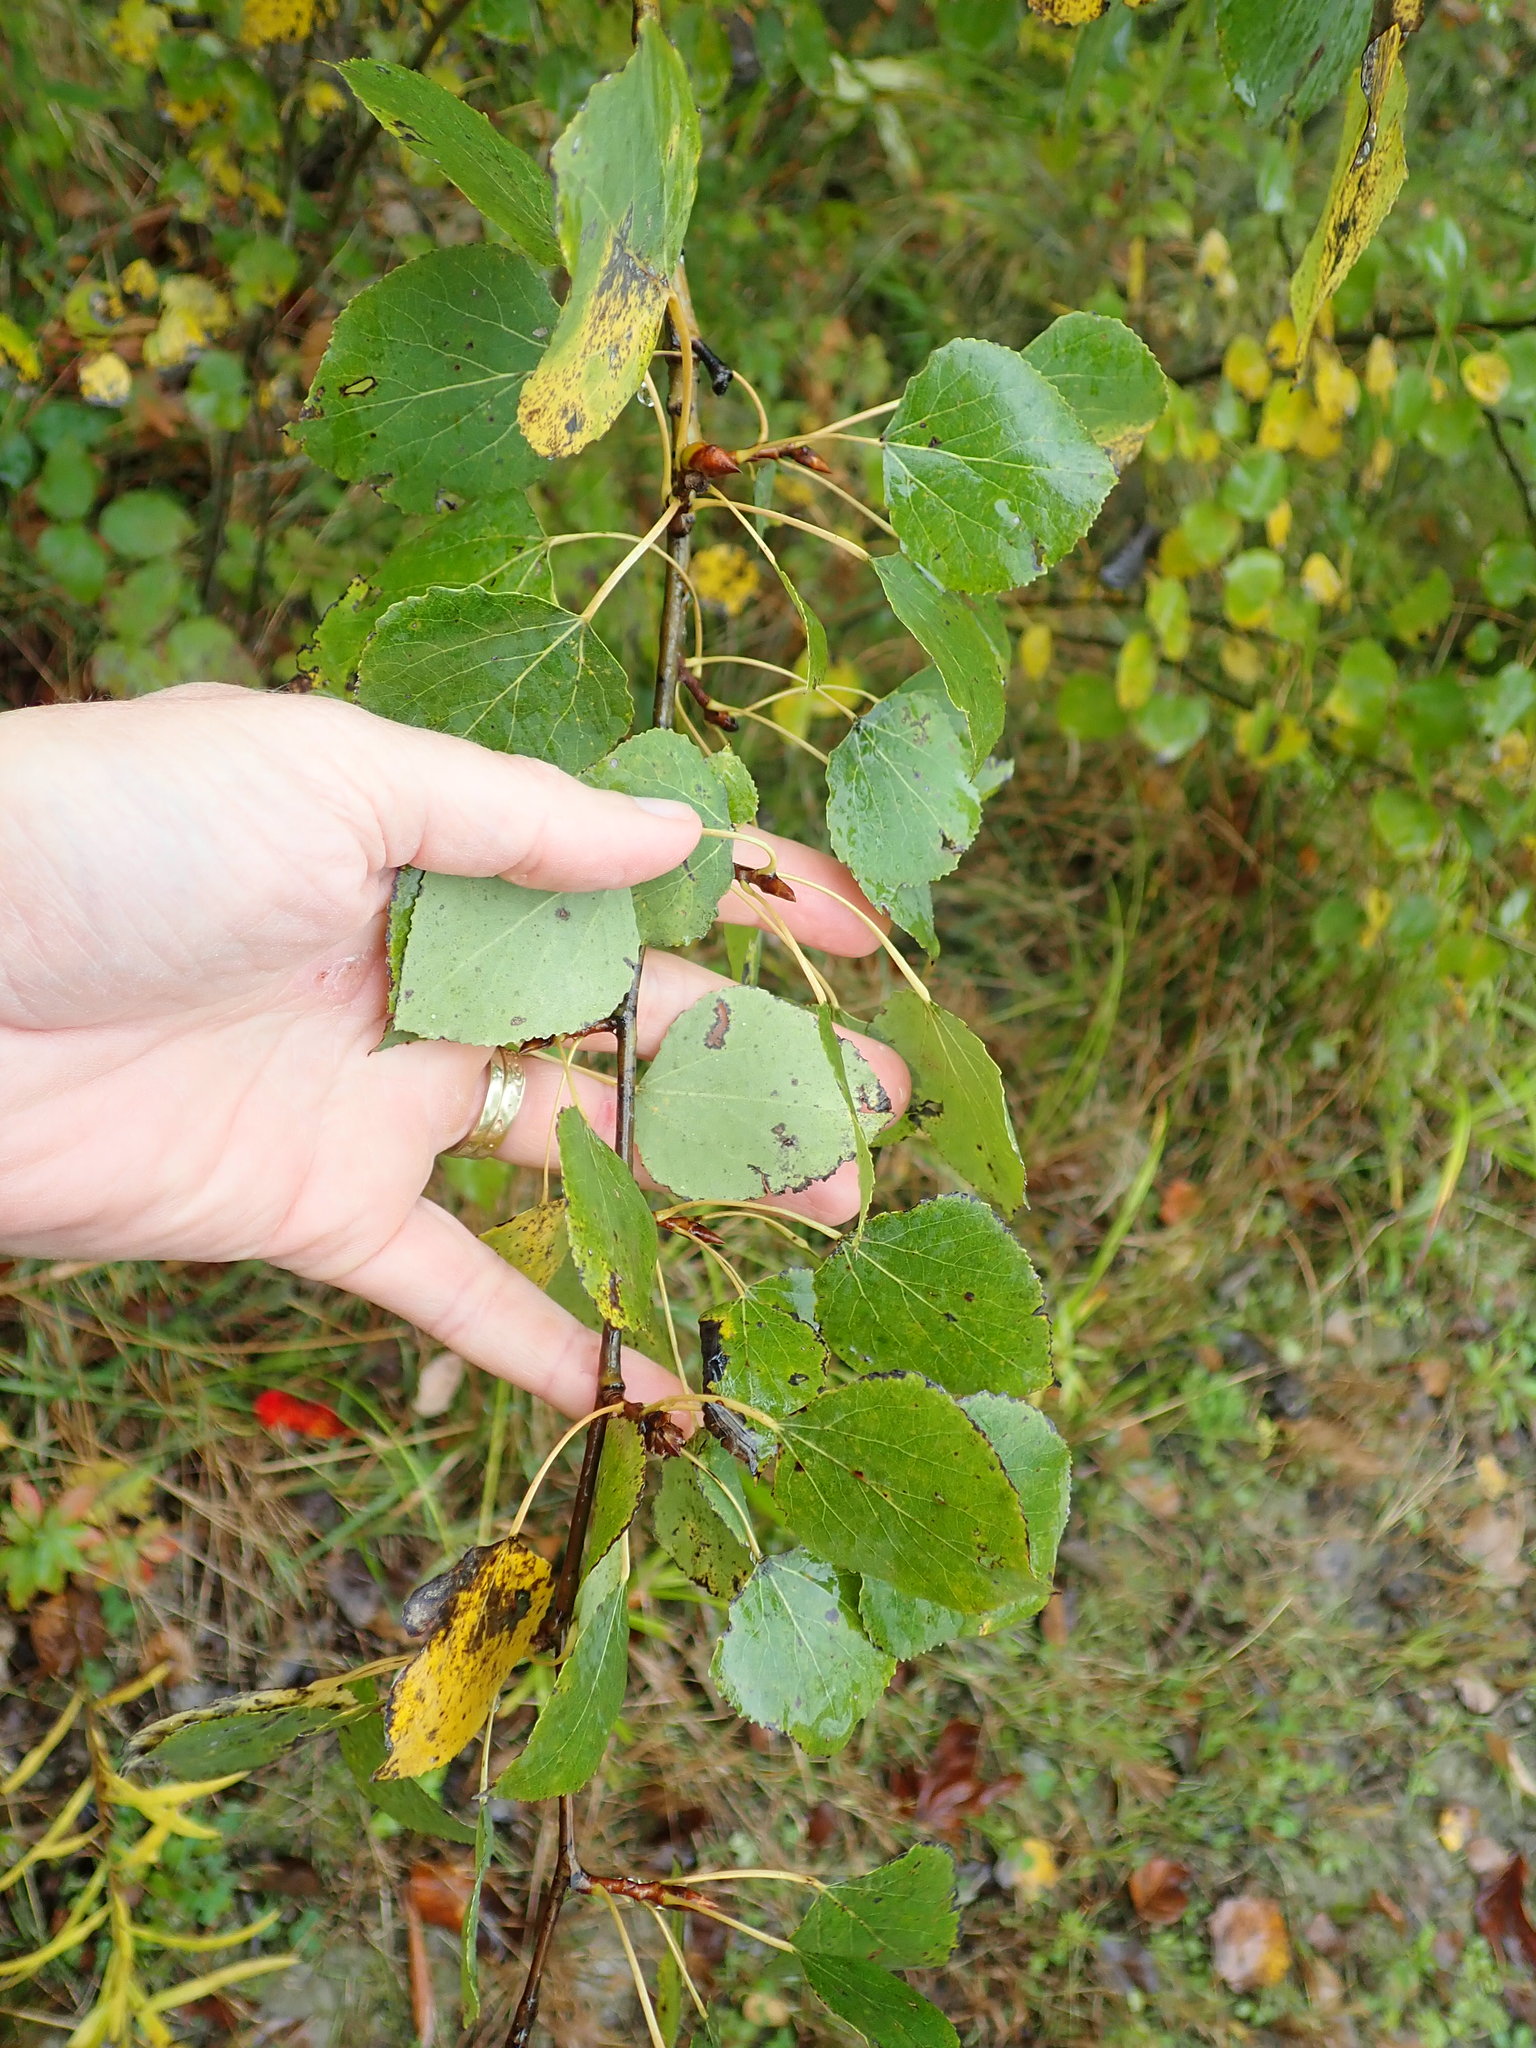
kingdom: Plantae
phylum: Tracheophyta
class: Magnoliopsida
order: Malpighiales
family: Salicaceae
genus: Populus
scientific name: Populus tremuloides
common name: Quaking aspen
